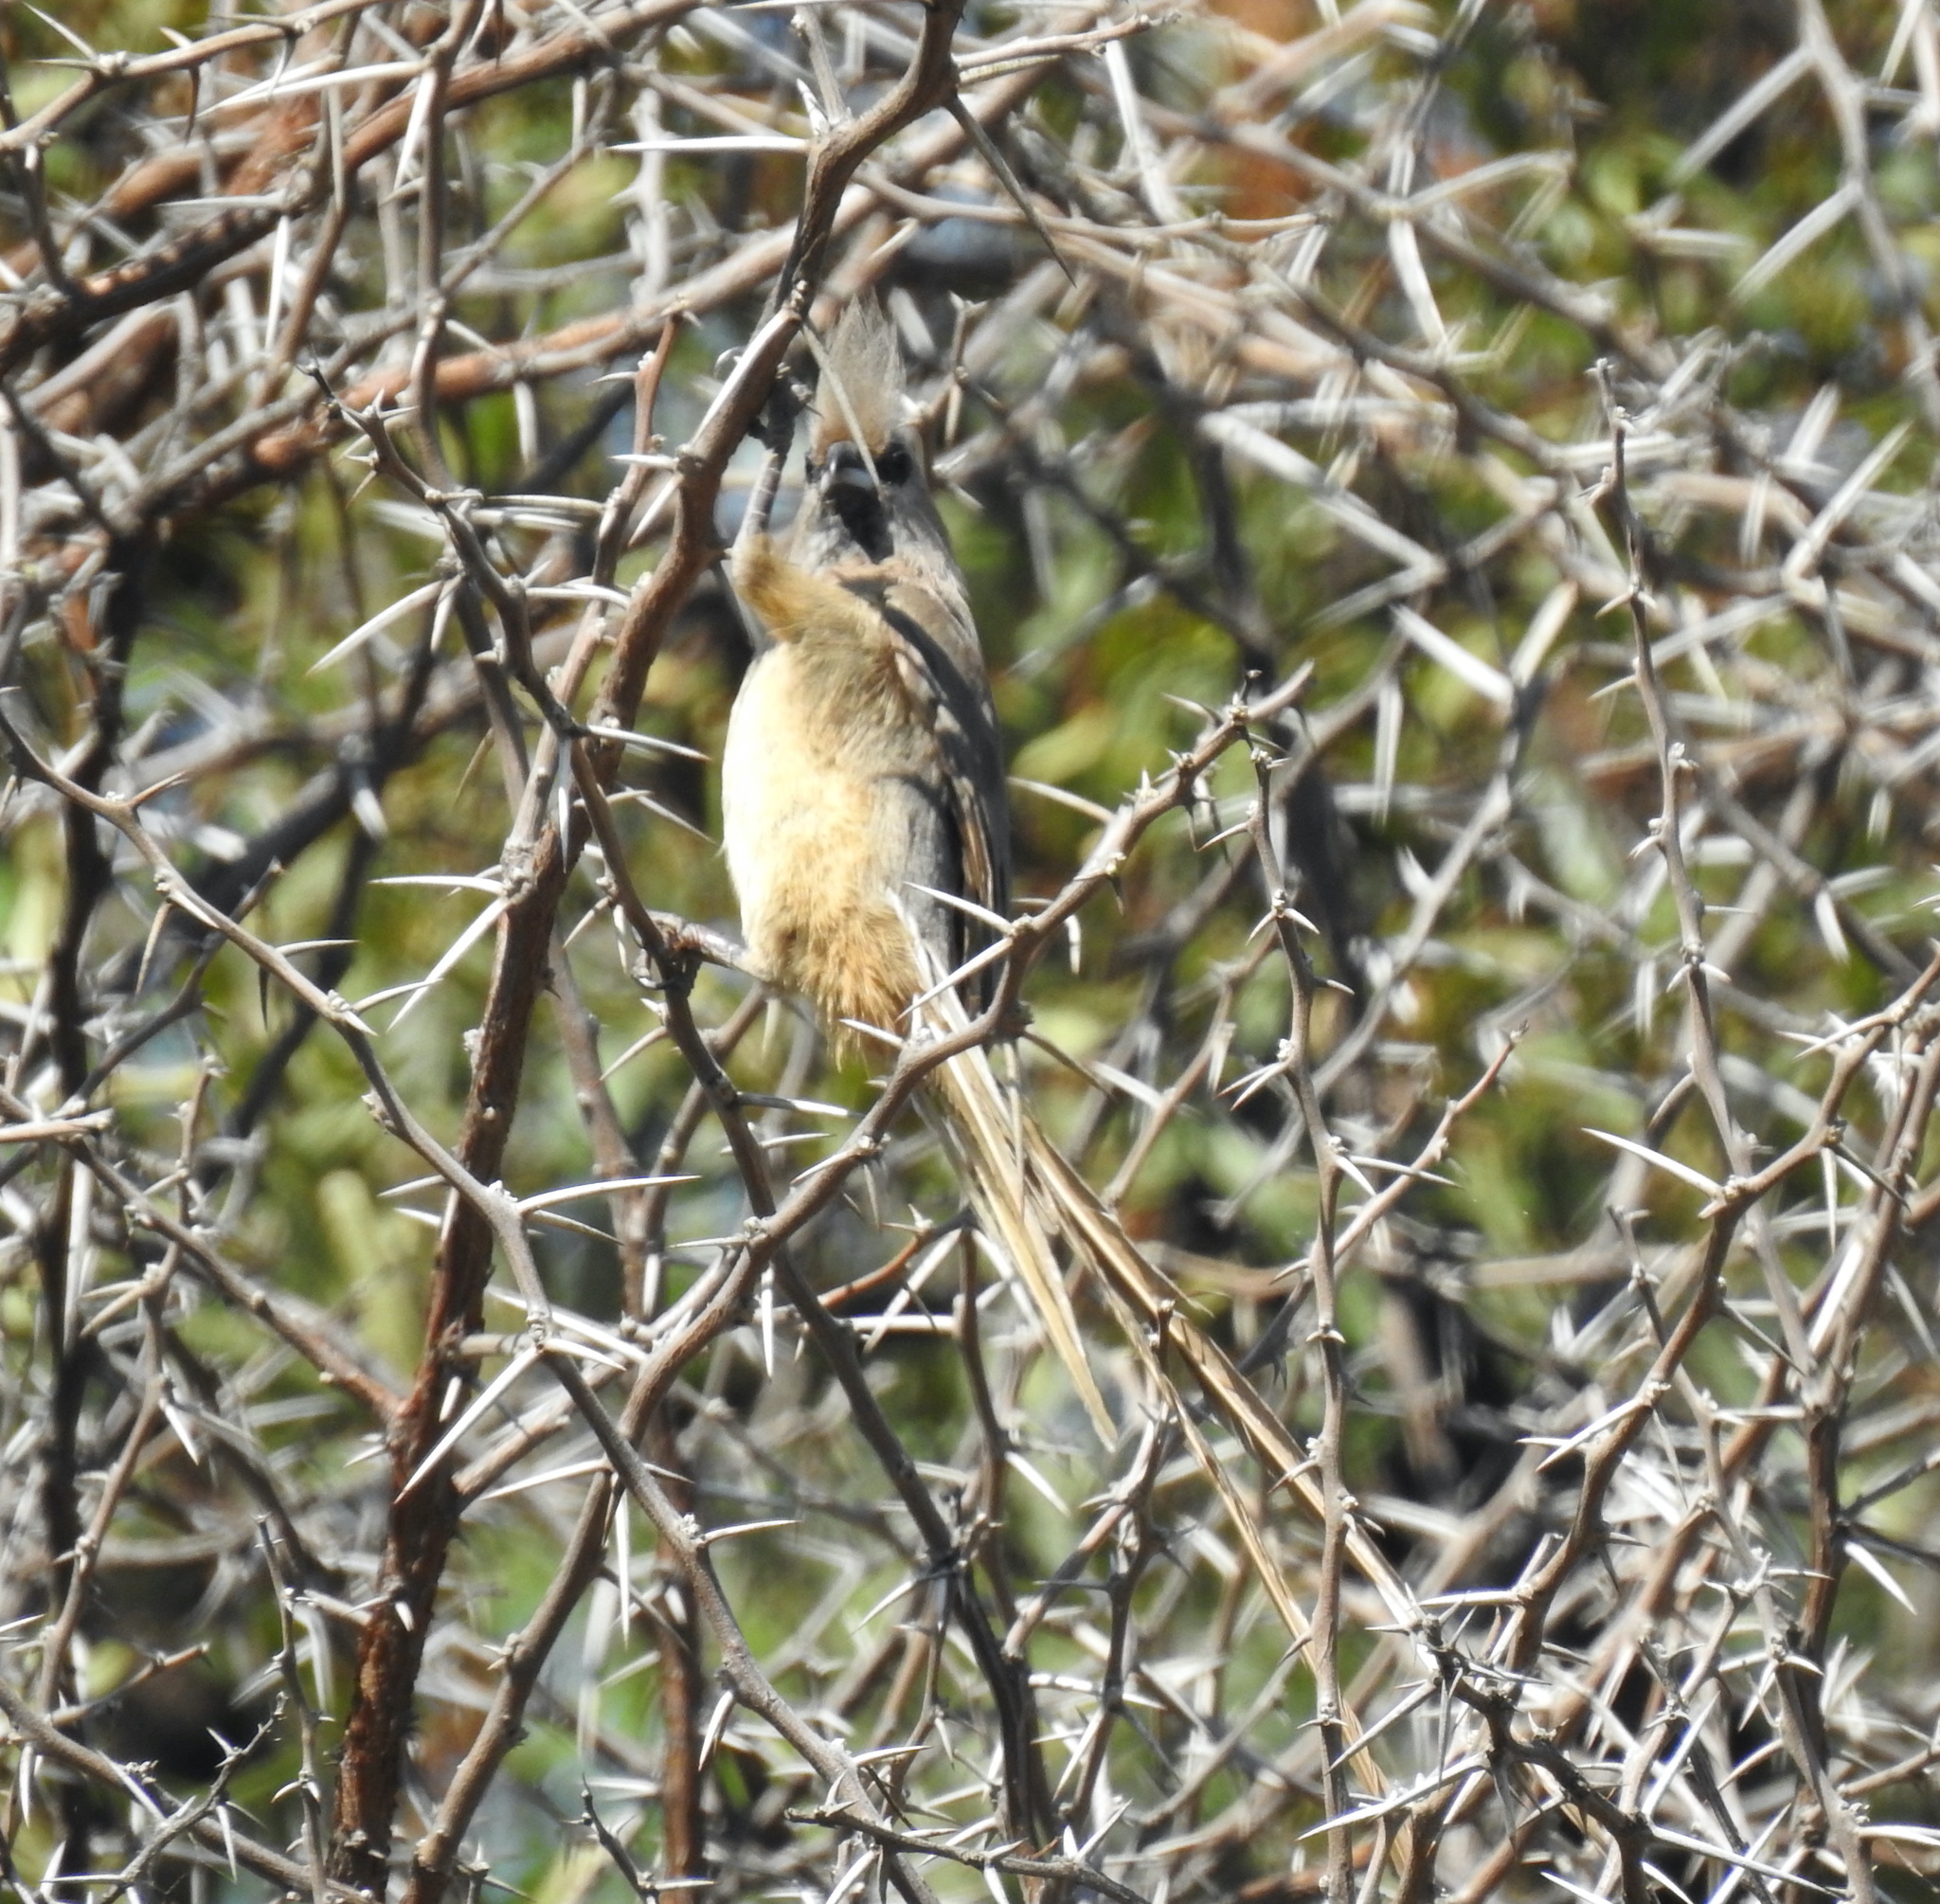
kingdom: Animalia
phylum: Chordata
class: Aves
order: Coliiformes
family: Coliidae
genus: Colius
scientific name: Colius striatus
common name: Speckled mousebird
